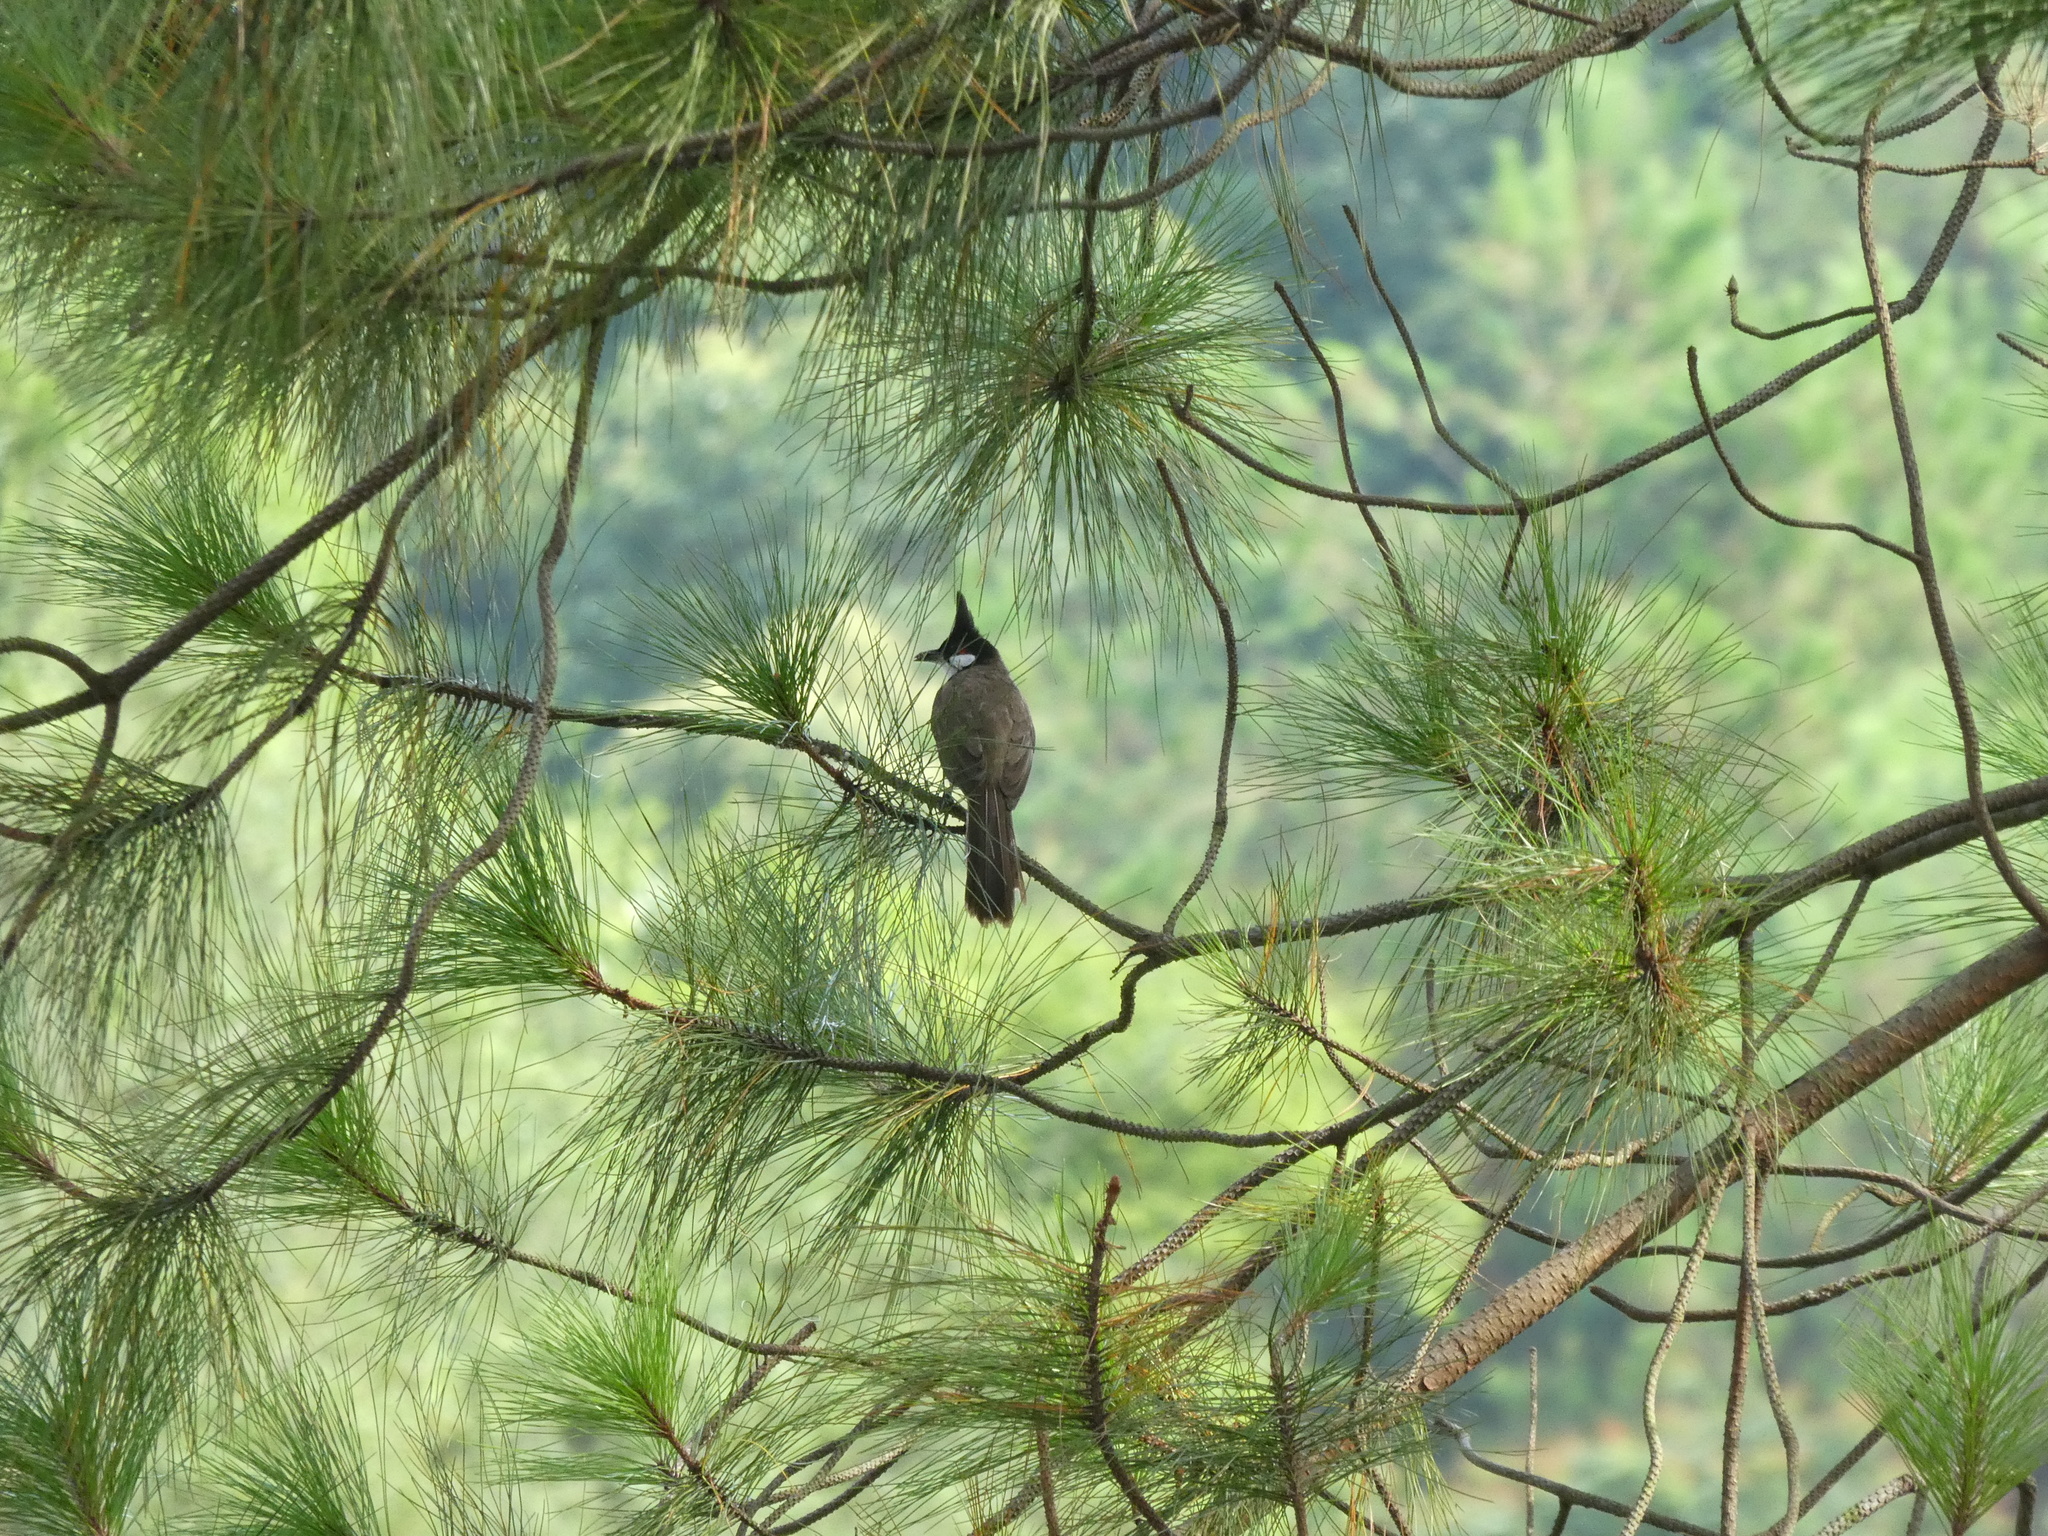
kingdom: Animalia
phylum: Chordata
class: Aves
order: Passeriformes
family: Pycnonotidae
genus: Pycnonotus
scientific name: Pycnonotus jocosus
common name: Red-whiskered bulbul
